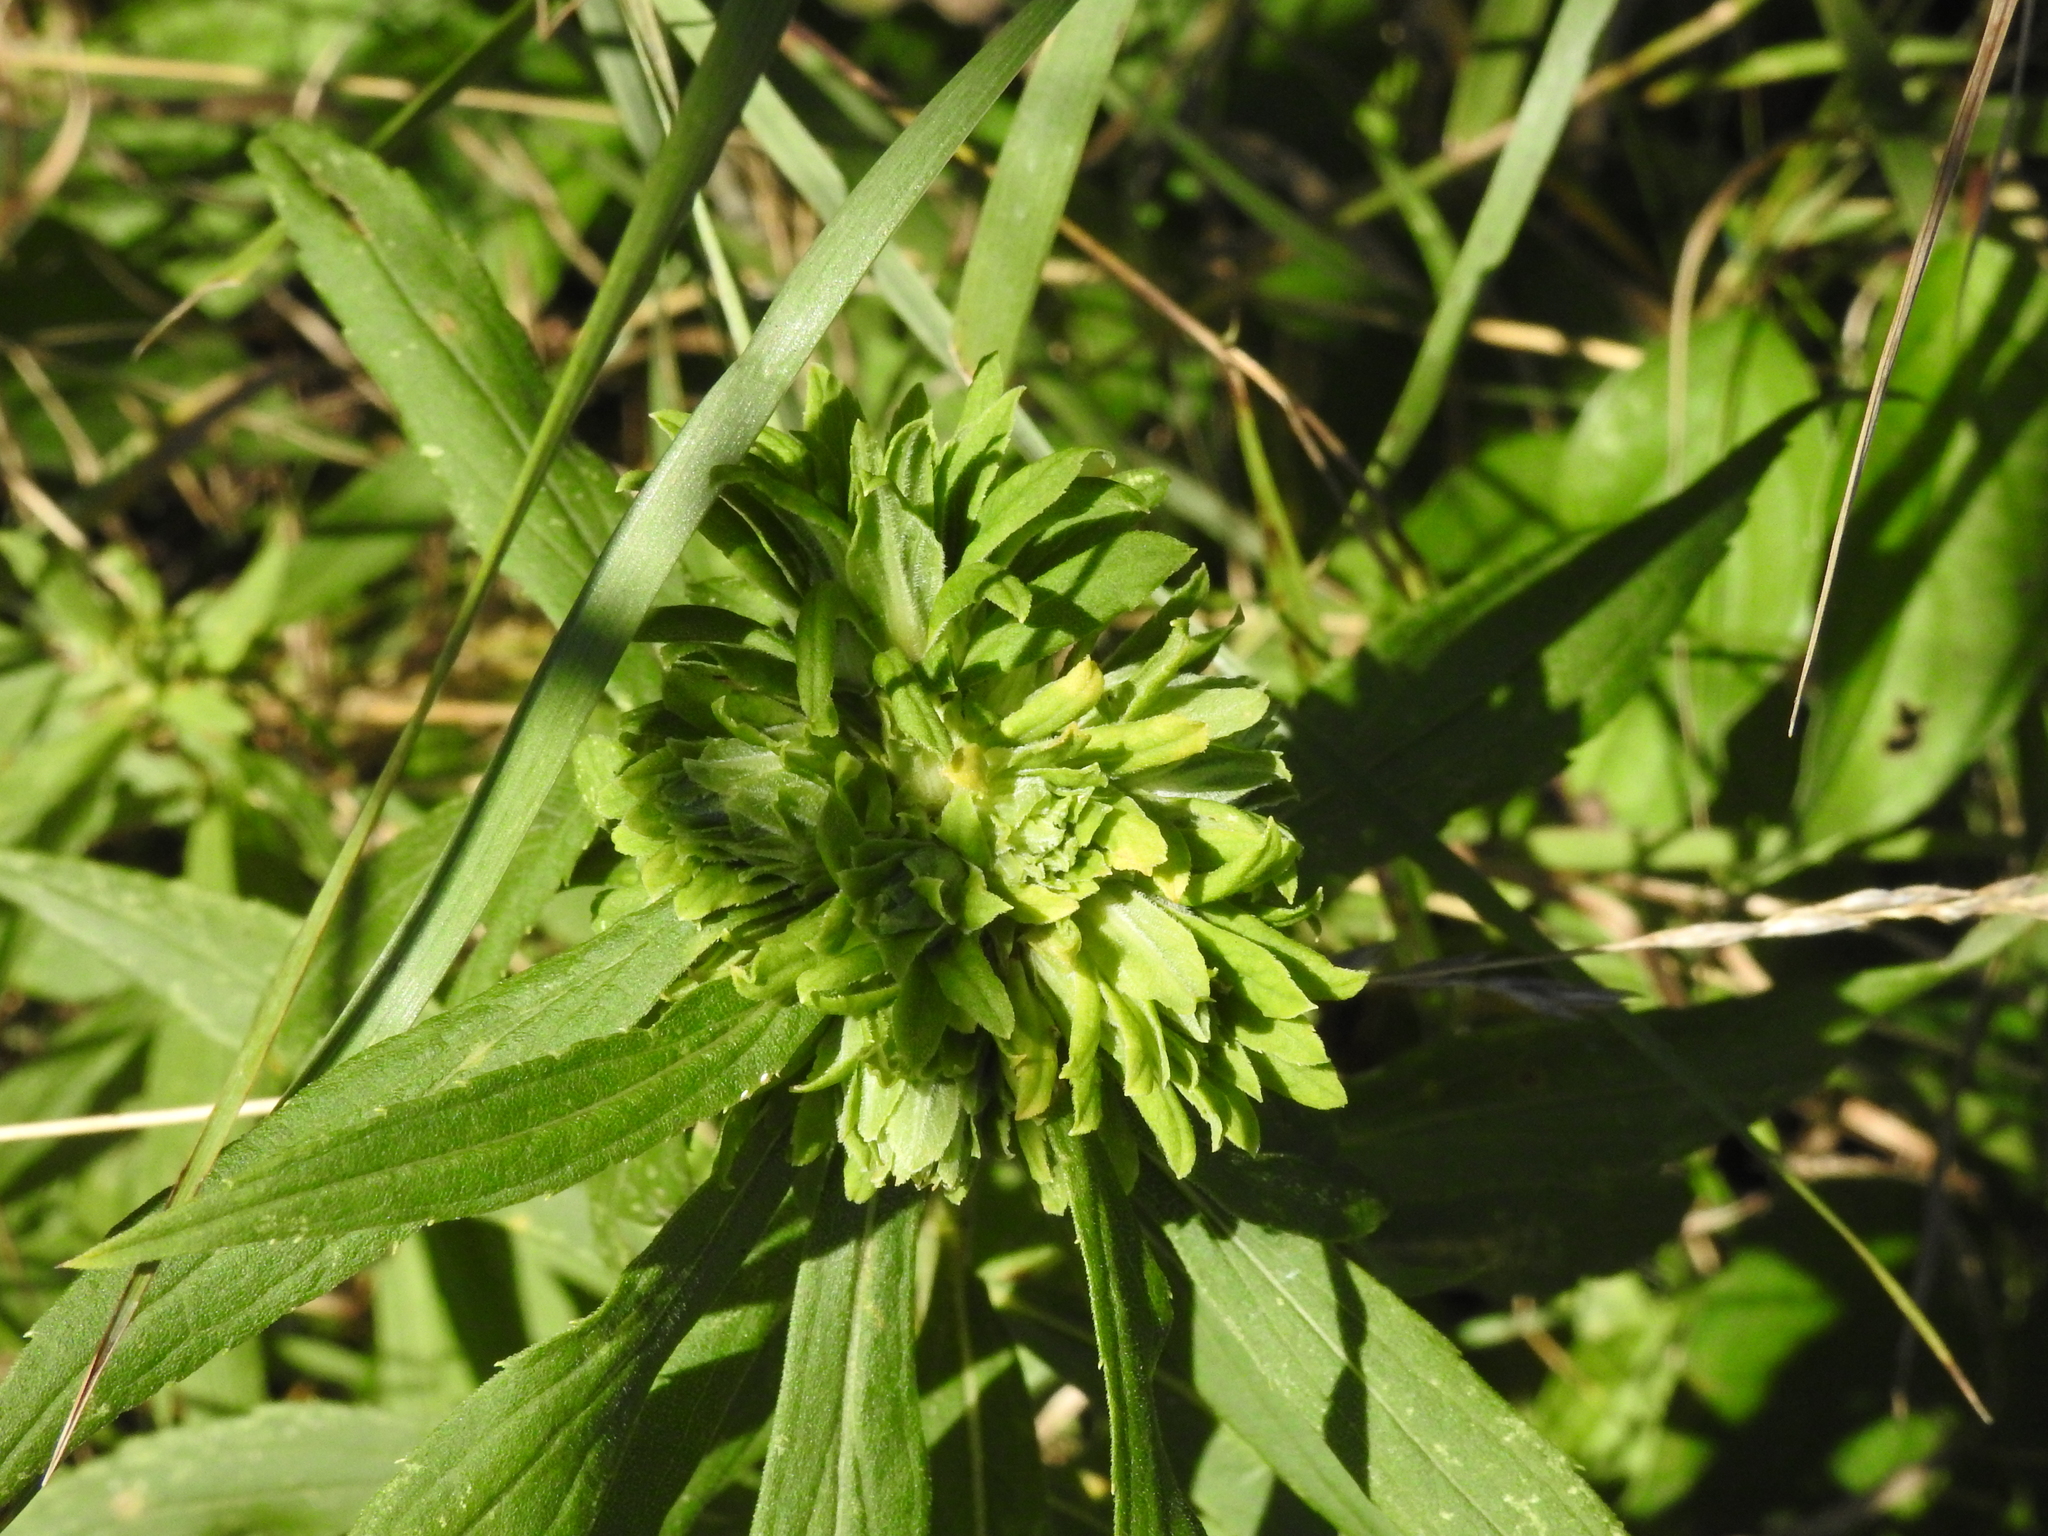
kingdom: Animalia
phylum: Arthropoda
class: Insecta
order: Diptera
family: Tephritidae
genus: Procecidochares
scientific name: Procecidochares atra
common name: Goldenrod brussels sprout gall fly
